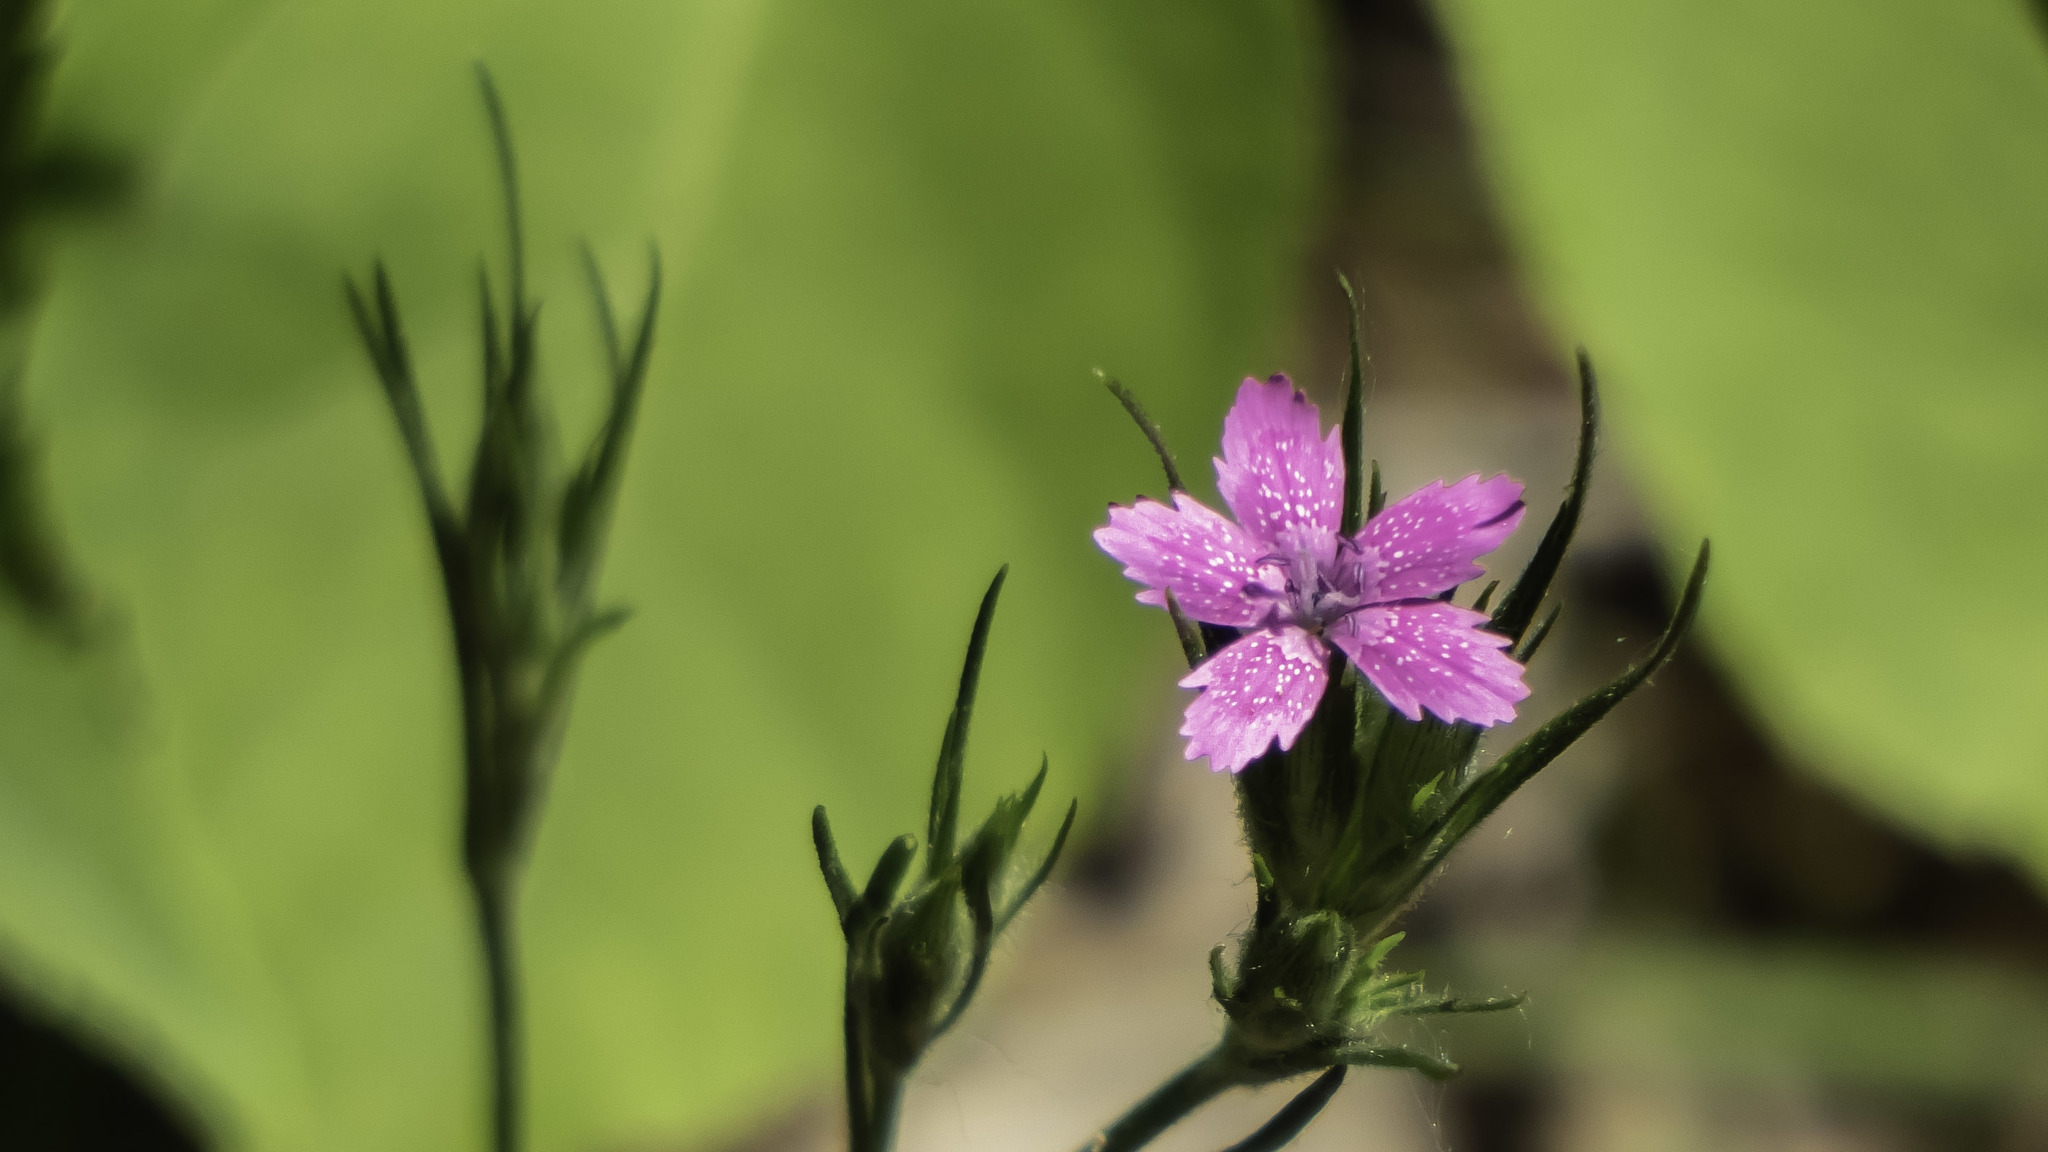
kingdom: Plantae
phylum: Tracheophyta
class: Magnoliopsida
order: Caryophyllales
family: Caryophyllaceae
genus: Dianthus
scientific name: Dianthus armeria
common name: Deptford pink
